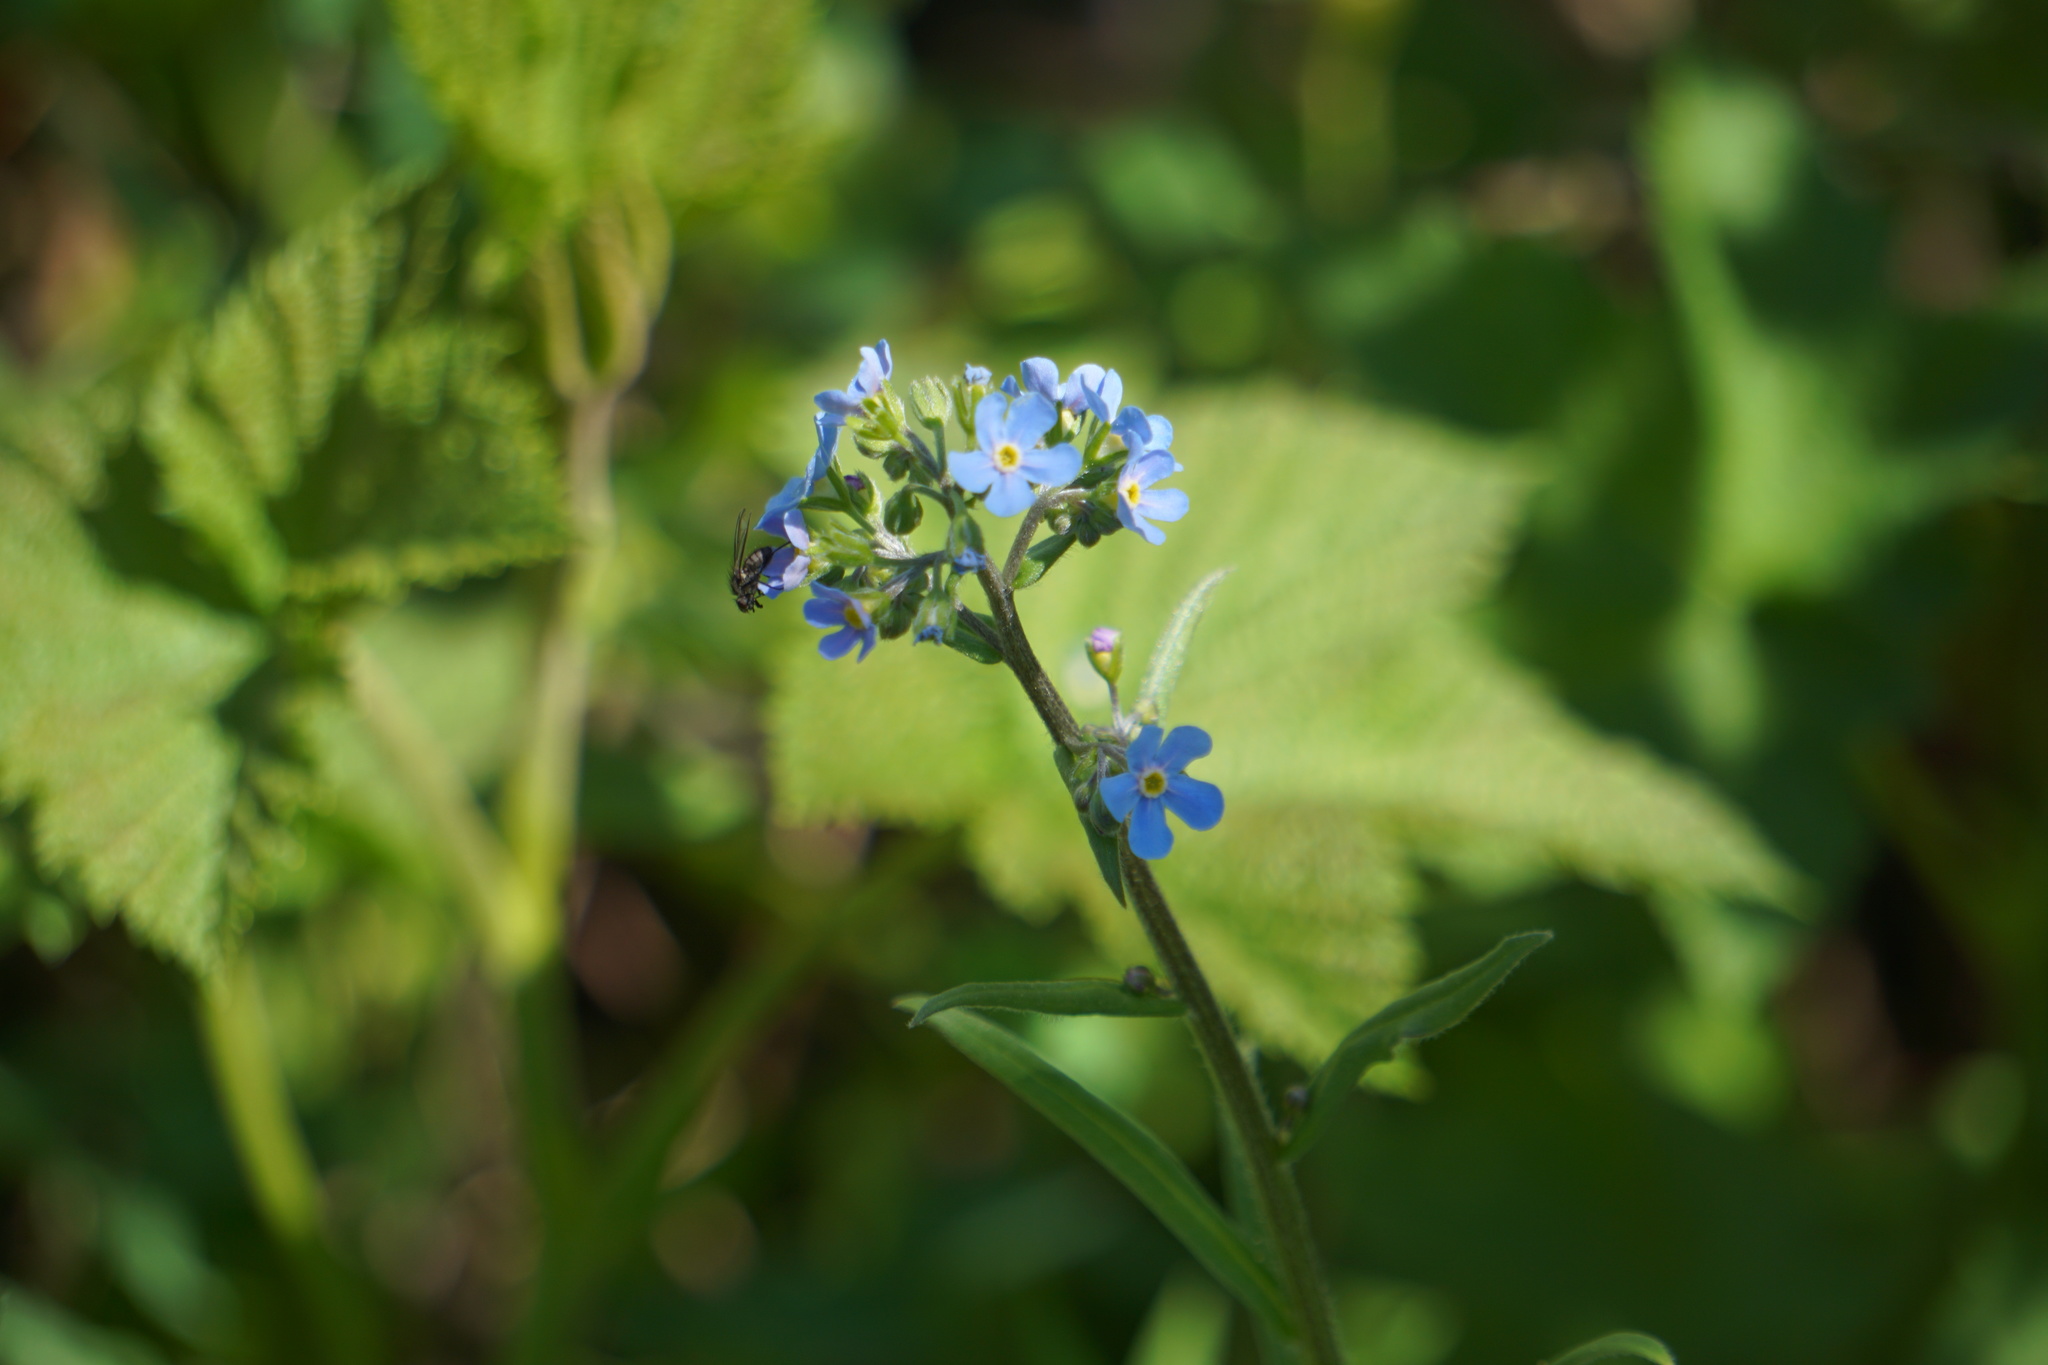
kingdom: Plantae
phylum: Tracheophyta
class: Magnoliopsida
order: Boraginales
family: Boraginaceae
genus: Hackelia
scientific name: Hackelia floribunda
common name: Large-flowered stickseed
